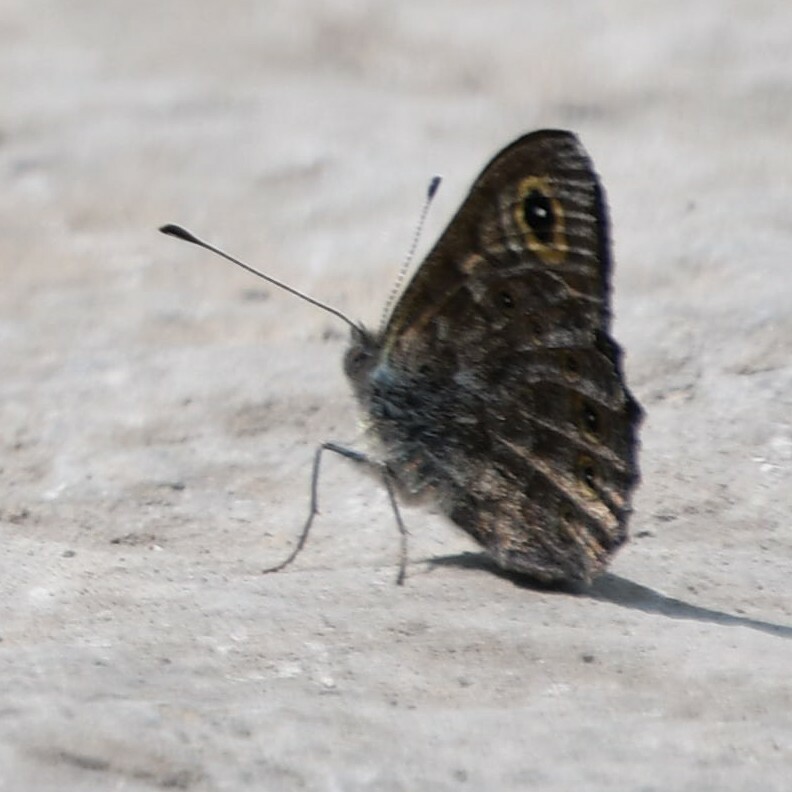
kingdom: Animalia
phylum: Arthropoda
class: Insecta
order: Lepidoptera
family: Nymphalidae
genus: Pararge
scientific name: Pararge petropolitana
